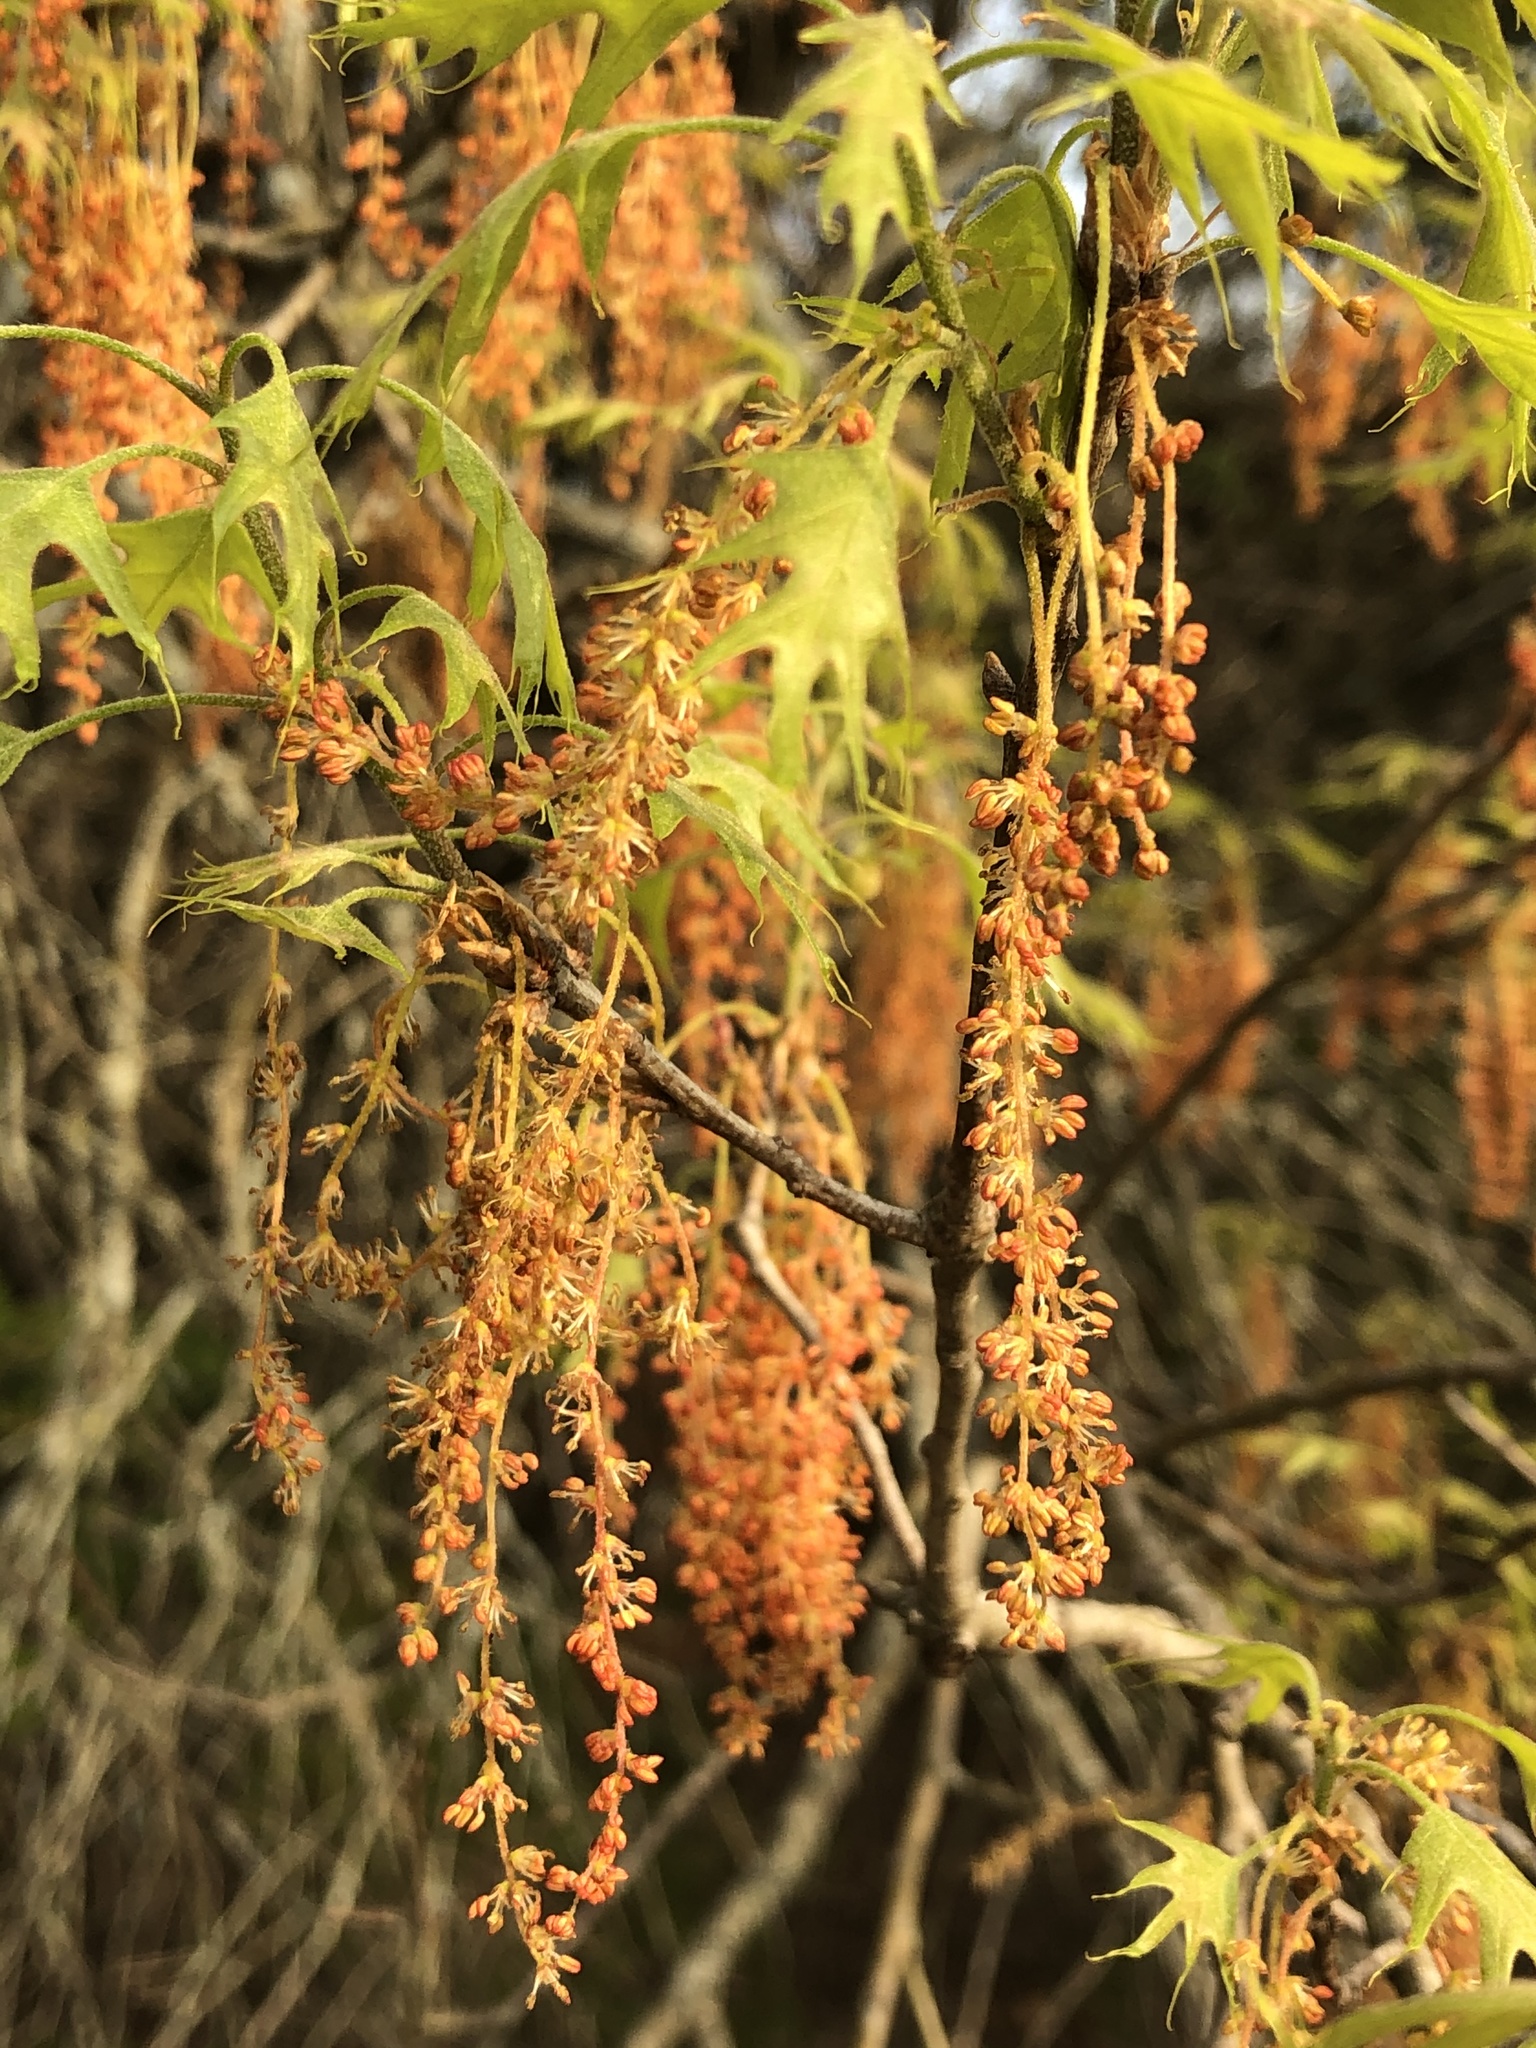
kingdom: Plantae
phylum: Tracheophyta
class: Magnoliopsida
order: Fagales
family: Fagaceae
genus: Quercus
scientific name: Quercus buckleyi
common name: Buckley oak
